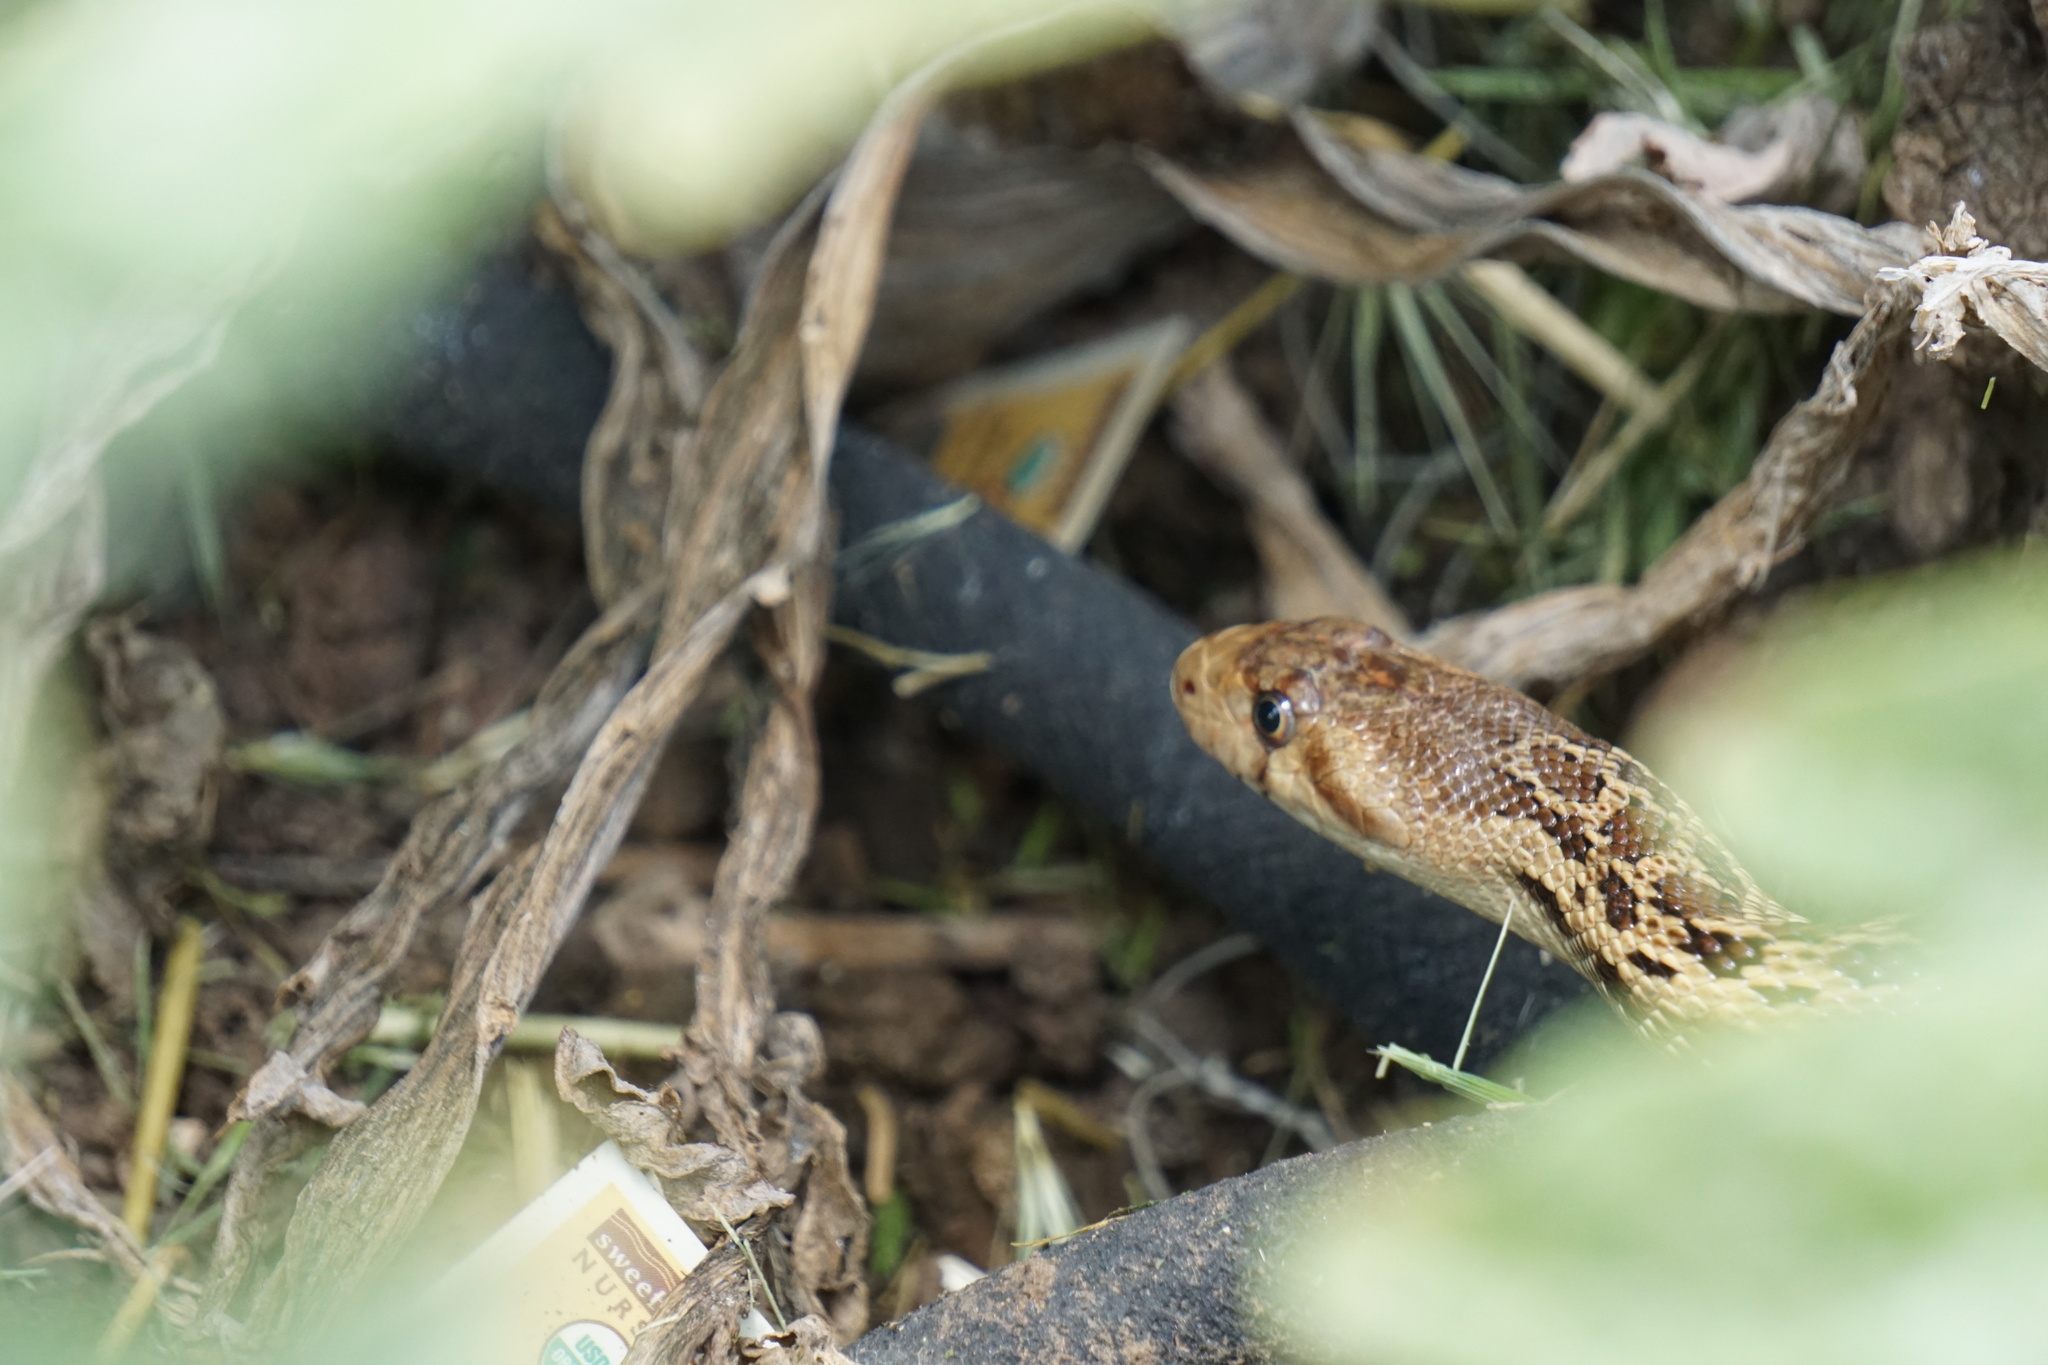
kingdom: Animalia
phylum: Chordata
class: Squamata
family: Colubridae
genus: Pituophis
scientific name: Pituophis catenifer
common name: Gopher snake
